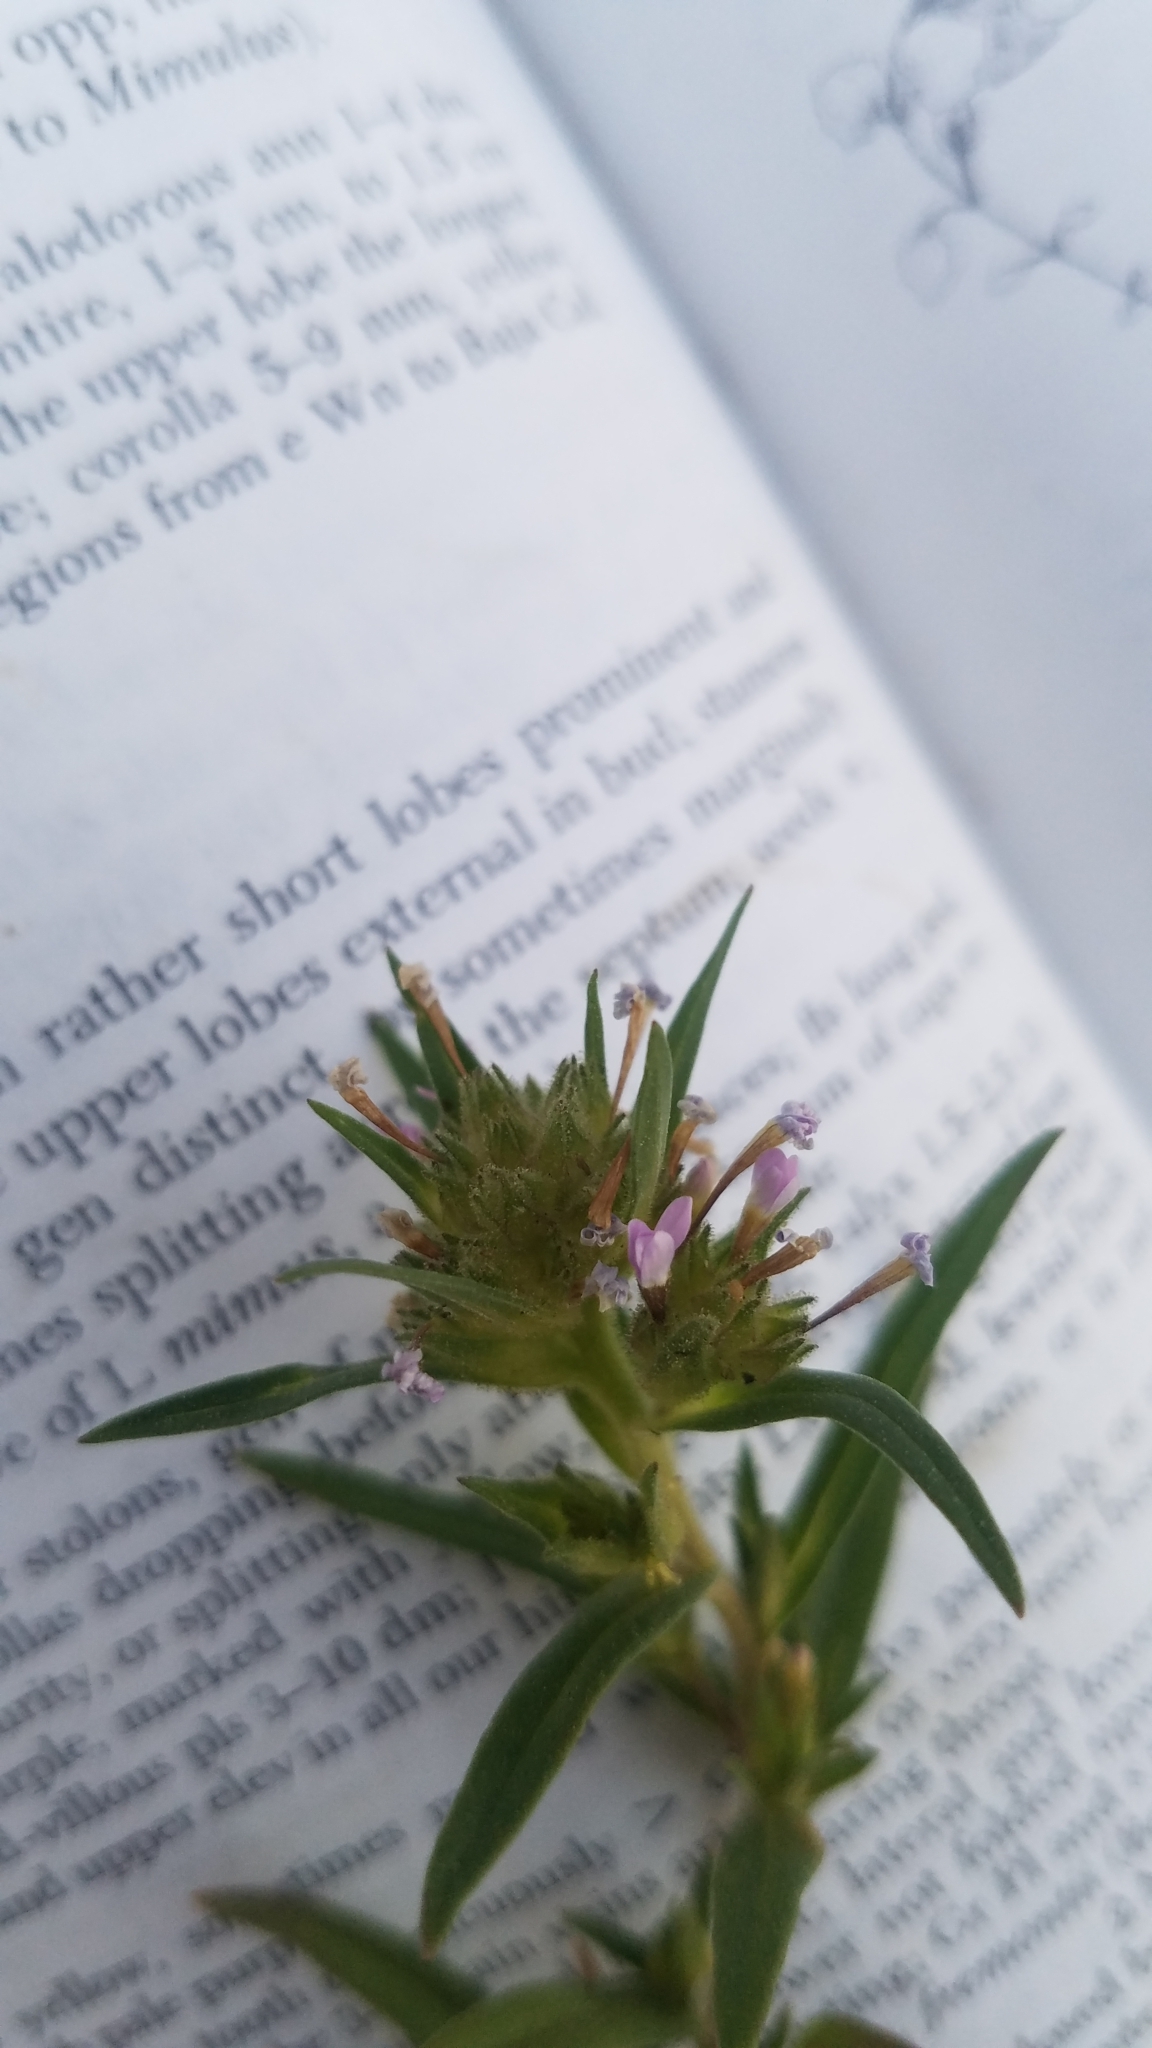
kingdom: Plantae
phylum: Tracheophyta
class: Magnoliopsida
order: Ericales
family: Polemoniaceae
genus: Collomia
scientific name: Collomia linearis
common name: Tiny trumpet
